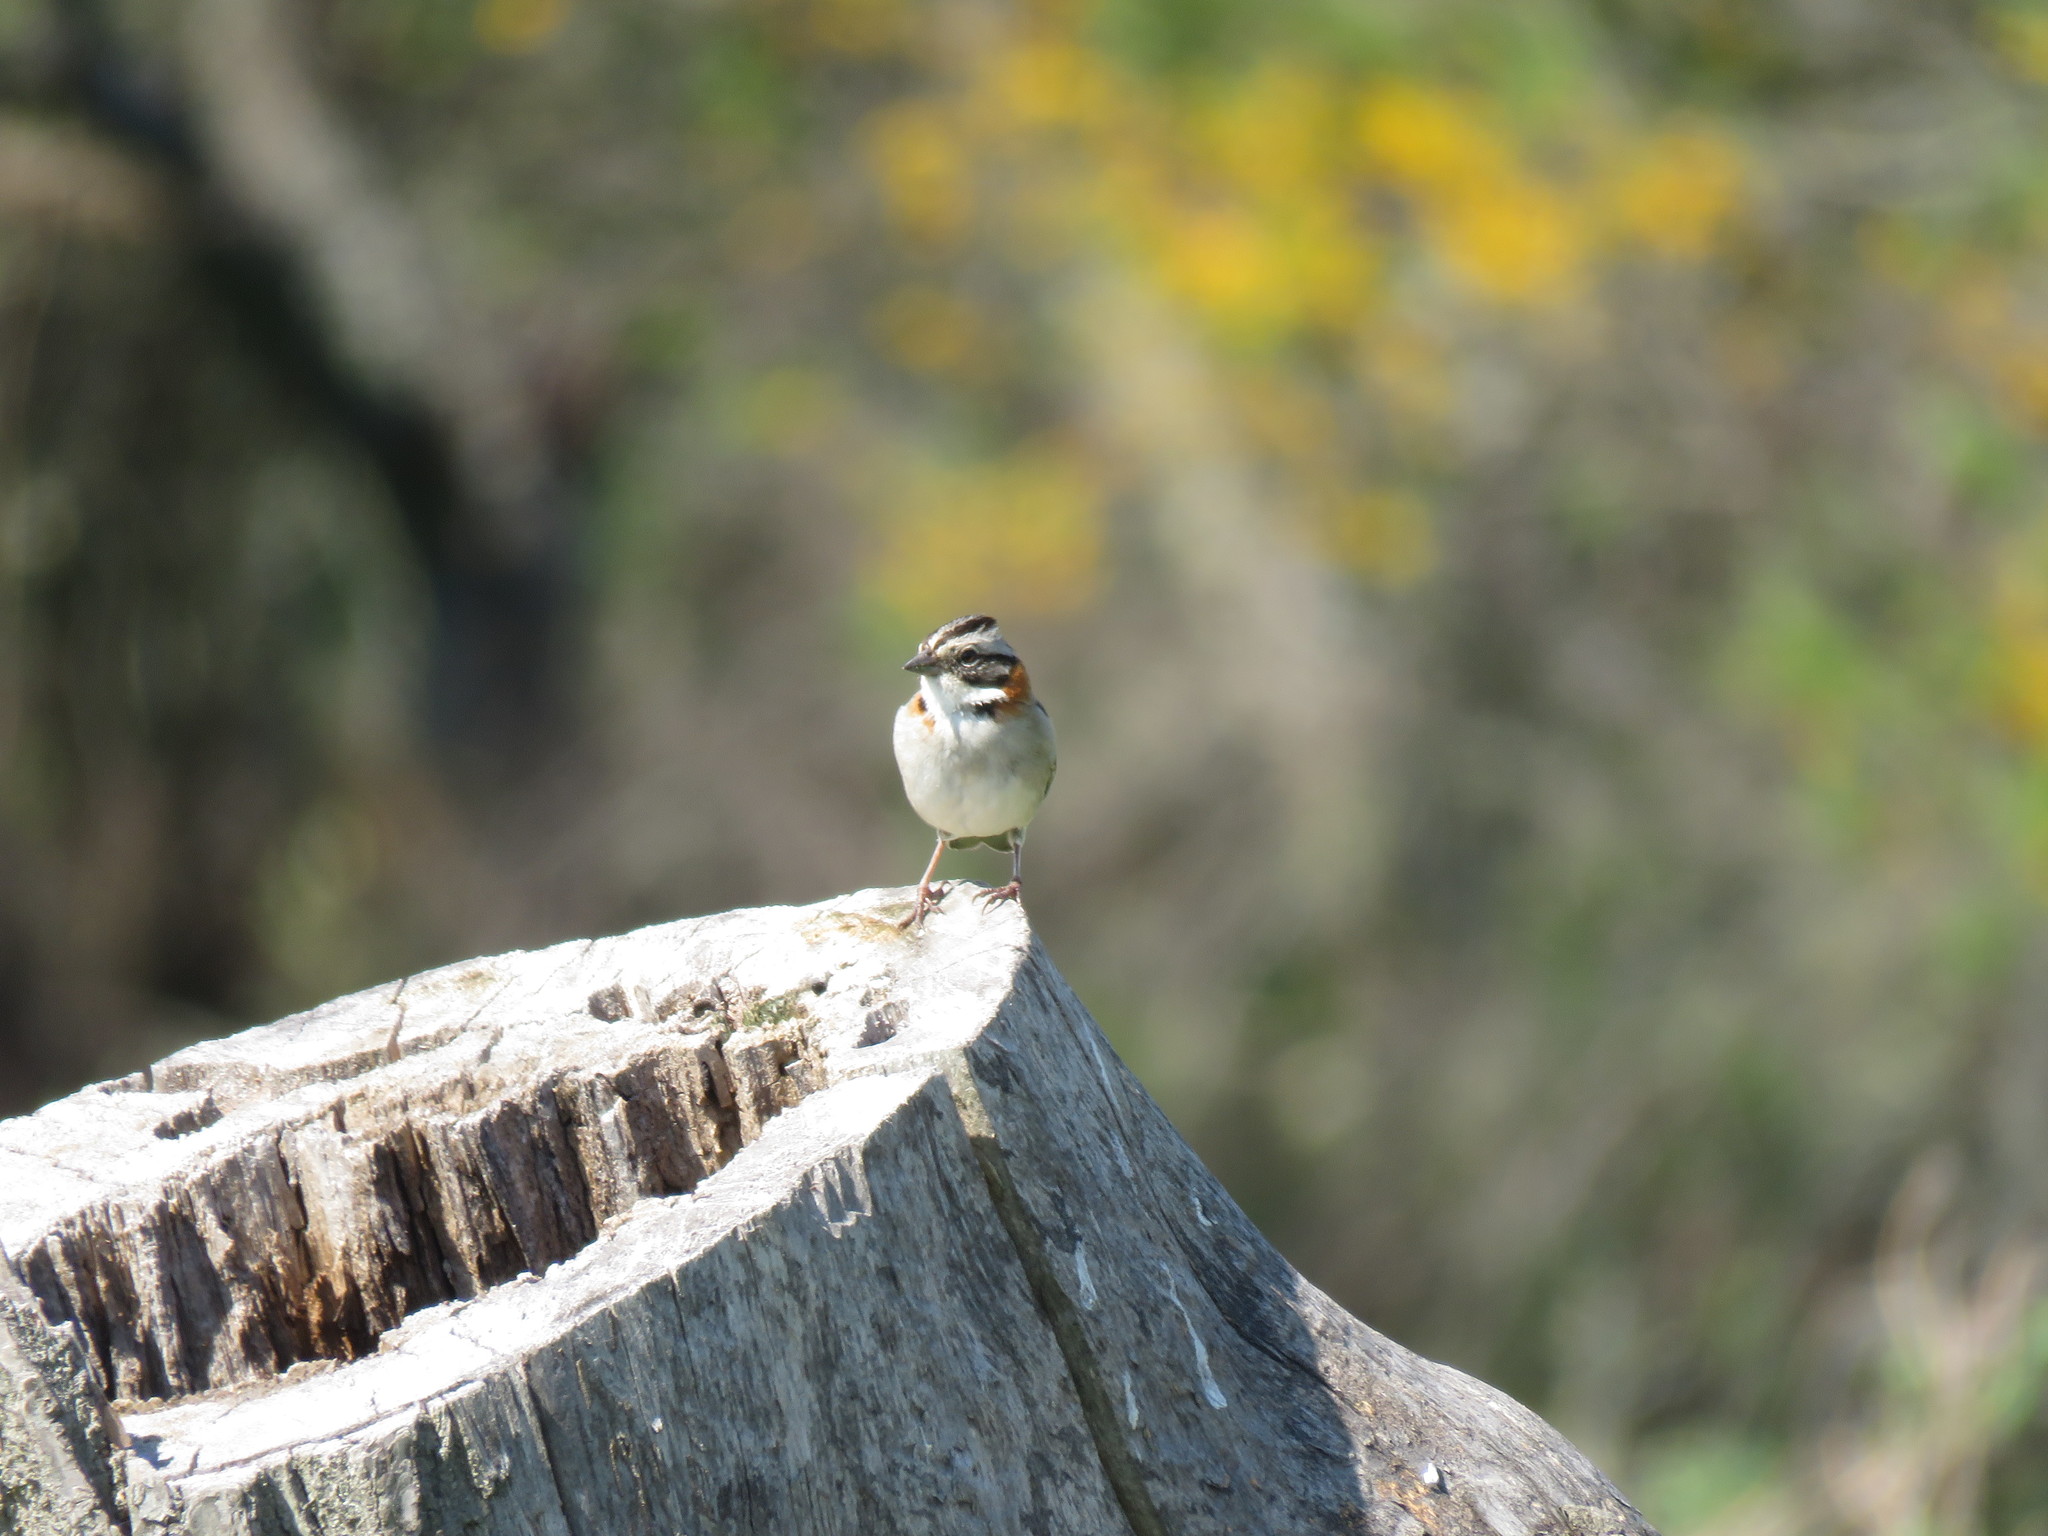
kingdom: Animalia
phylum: Chordata
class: Aves
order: Passeriformes
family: Passerellidae
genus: Zonotrichia
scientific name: Zonotrichia capensis
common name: Rufous-collared sparrow
